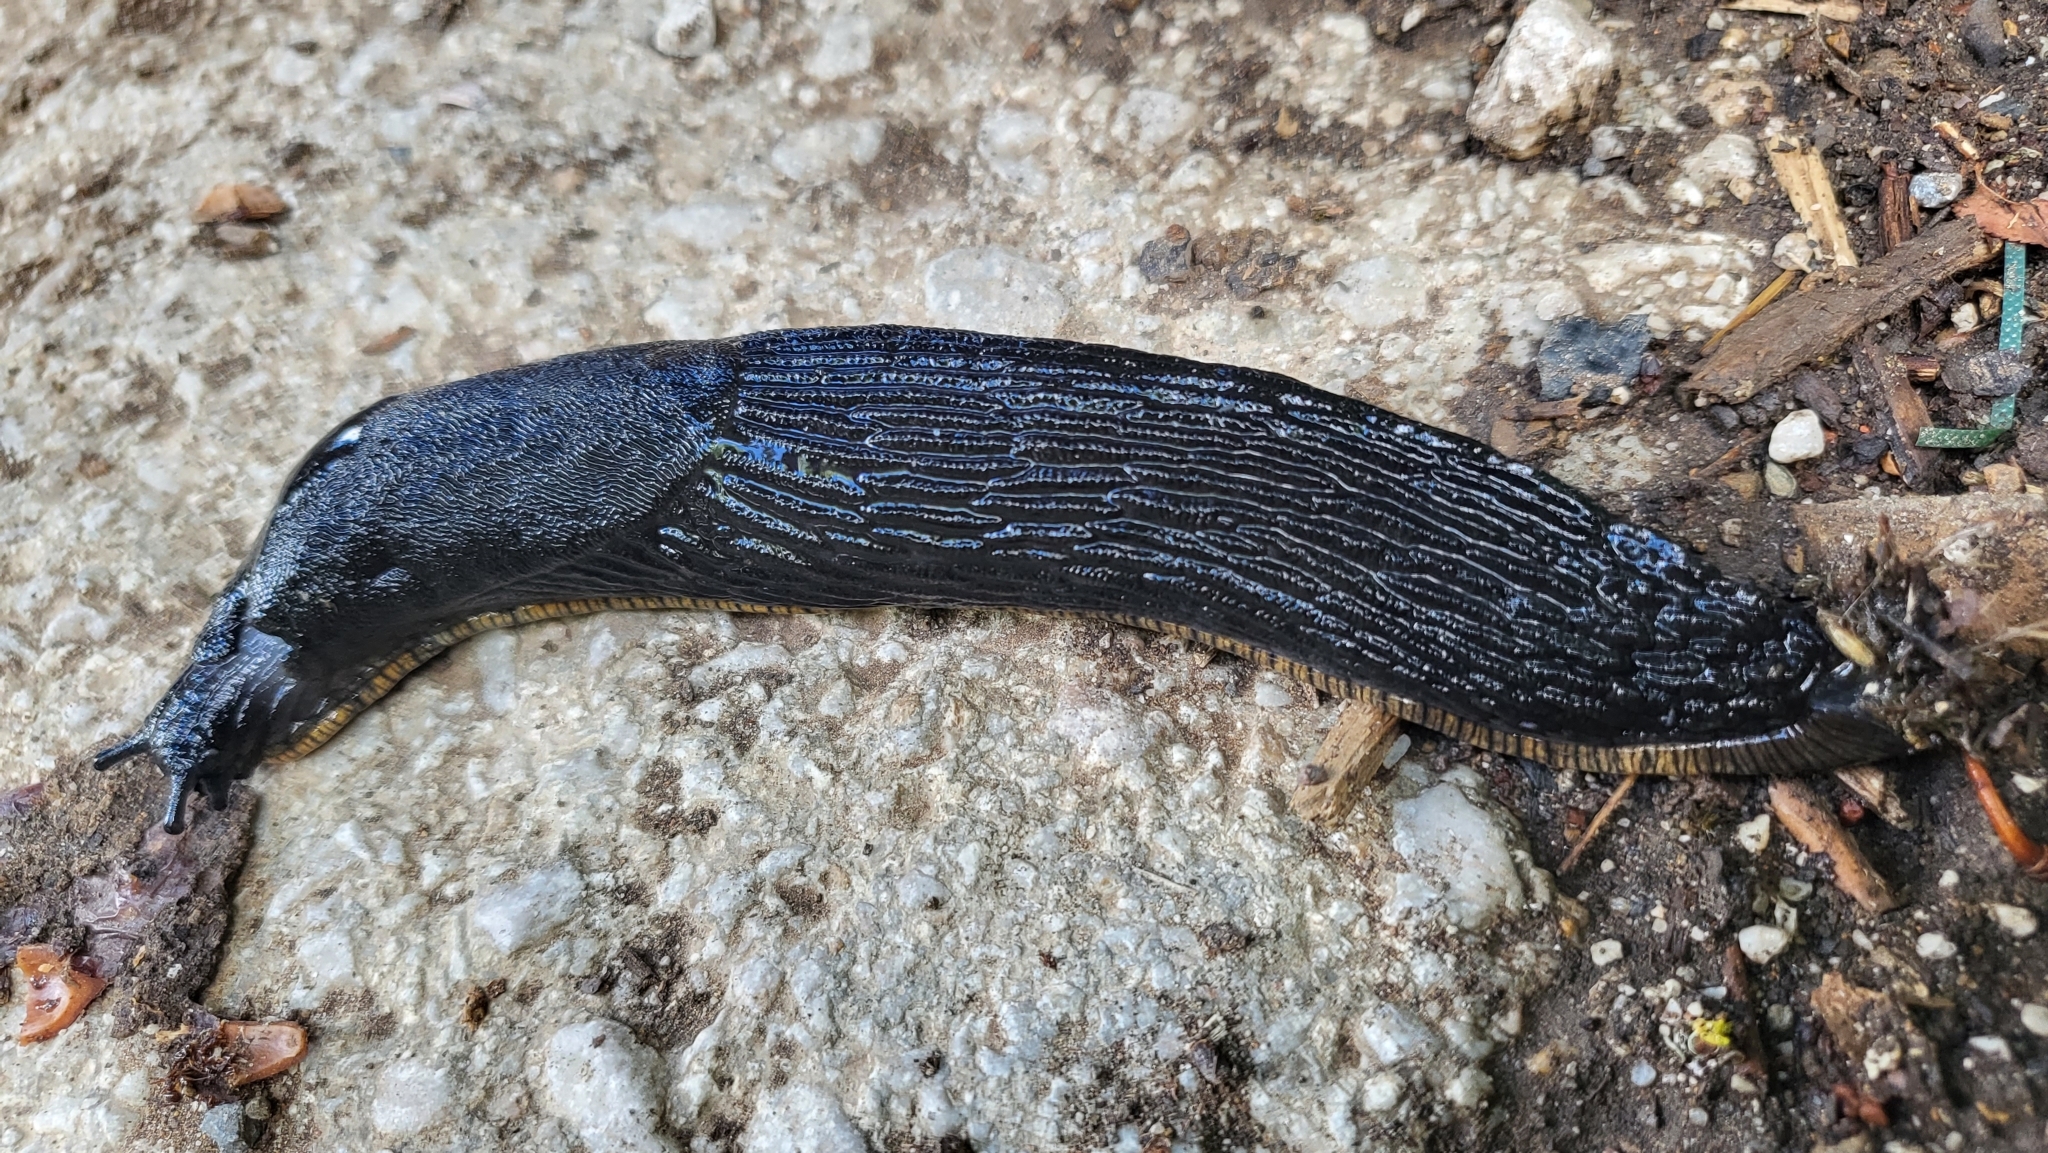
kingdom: Animalia
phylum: Mollusca
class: Gastropoda
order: Stylommatophora
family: Arionidae
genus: Arion
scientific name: Arion ater
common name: Black arion
